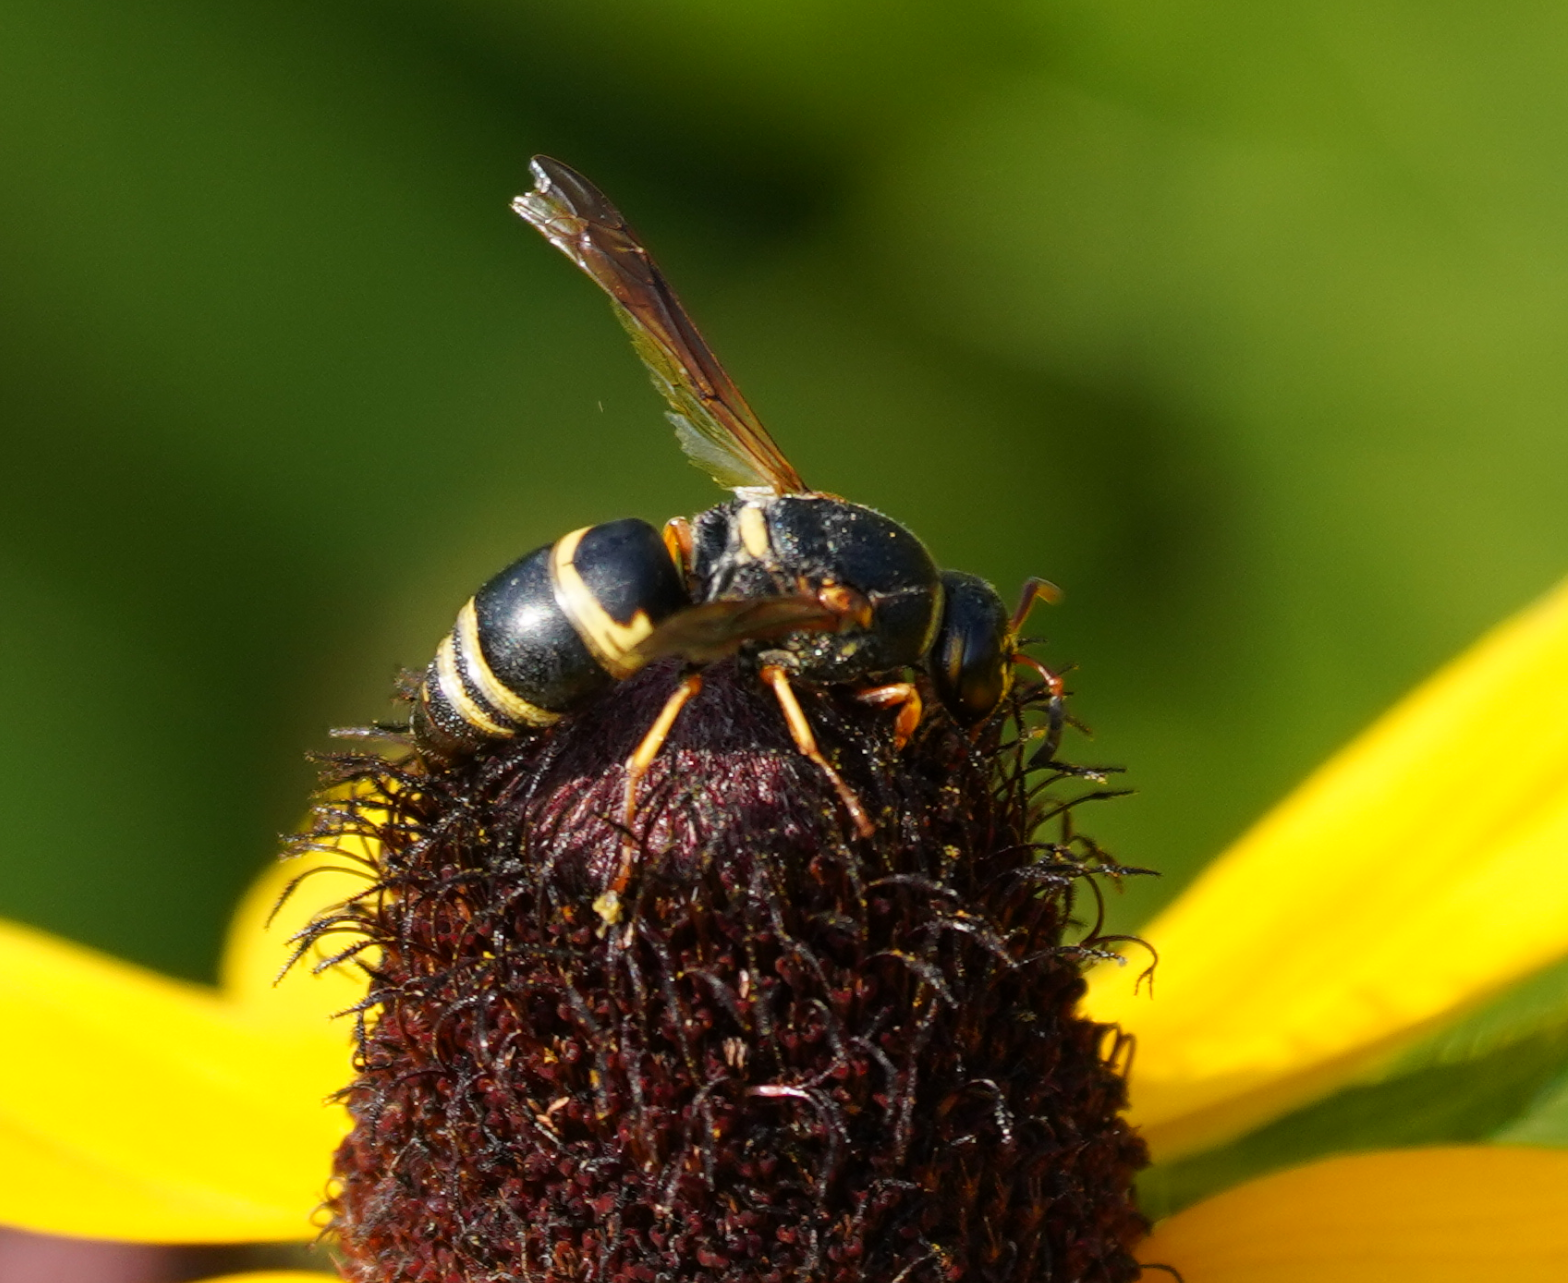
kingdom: Animalia
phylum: Arthropoda
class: Insecta
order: Hymenoptera
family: Eumenidae
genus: Euodynerus
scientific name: Euodynerus hidalgo
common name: Wasp
